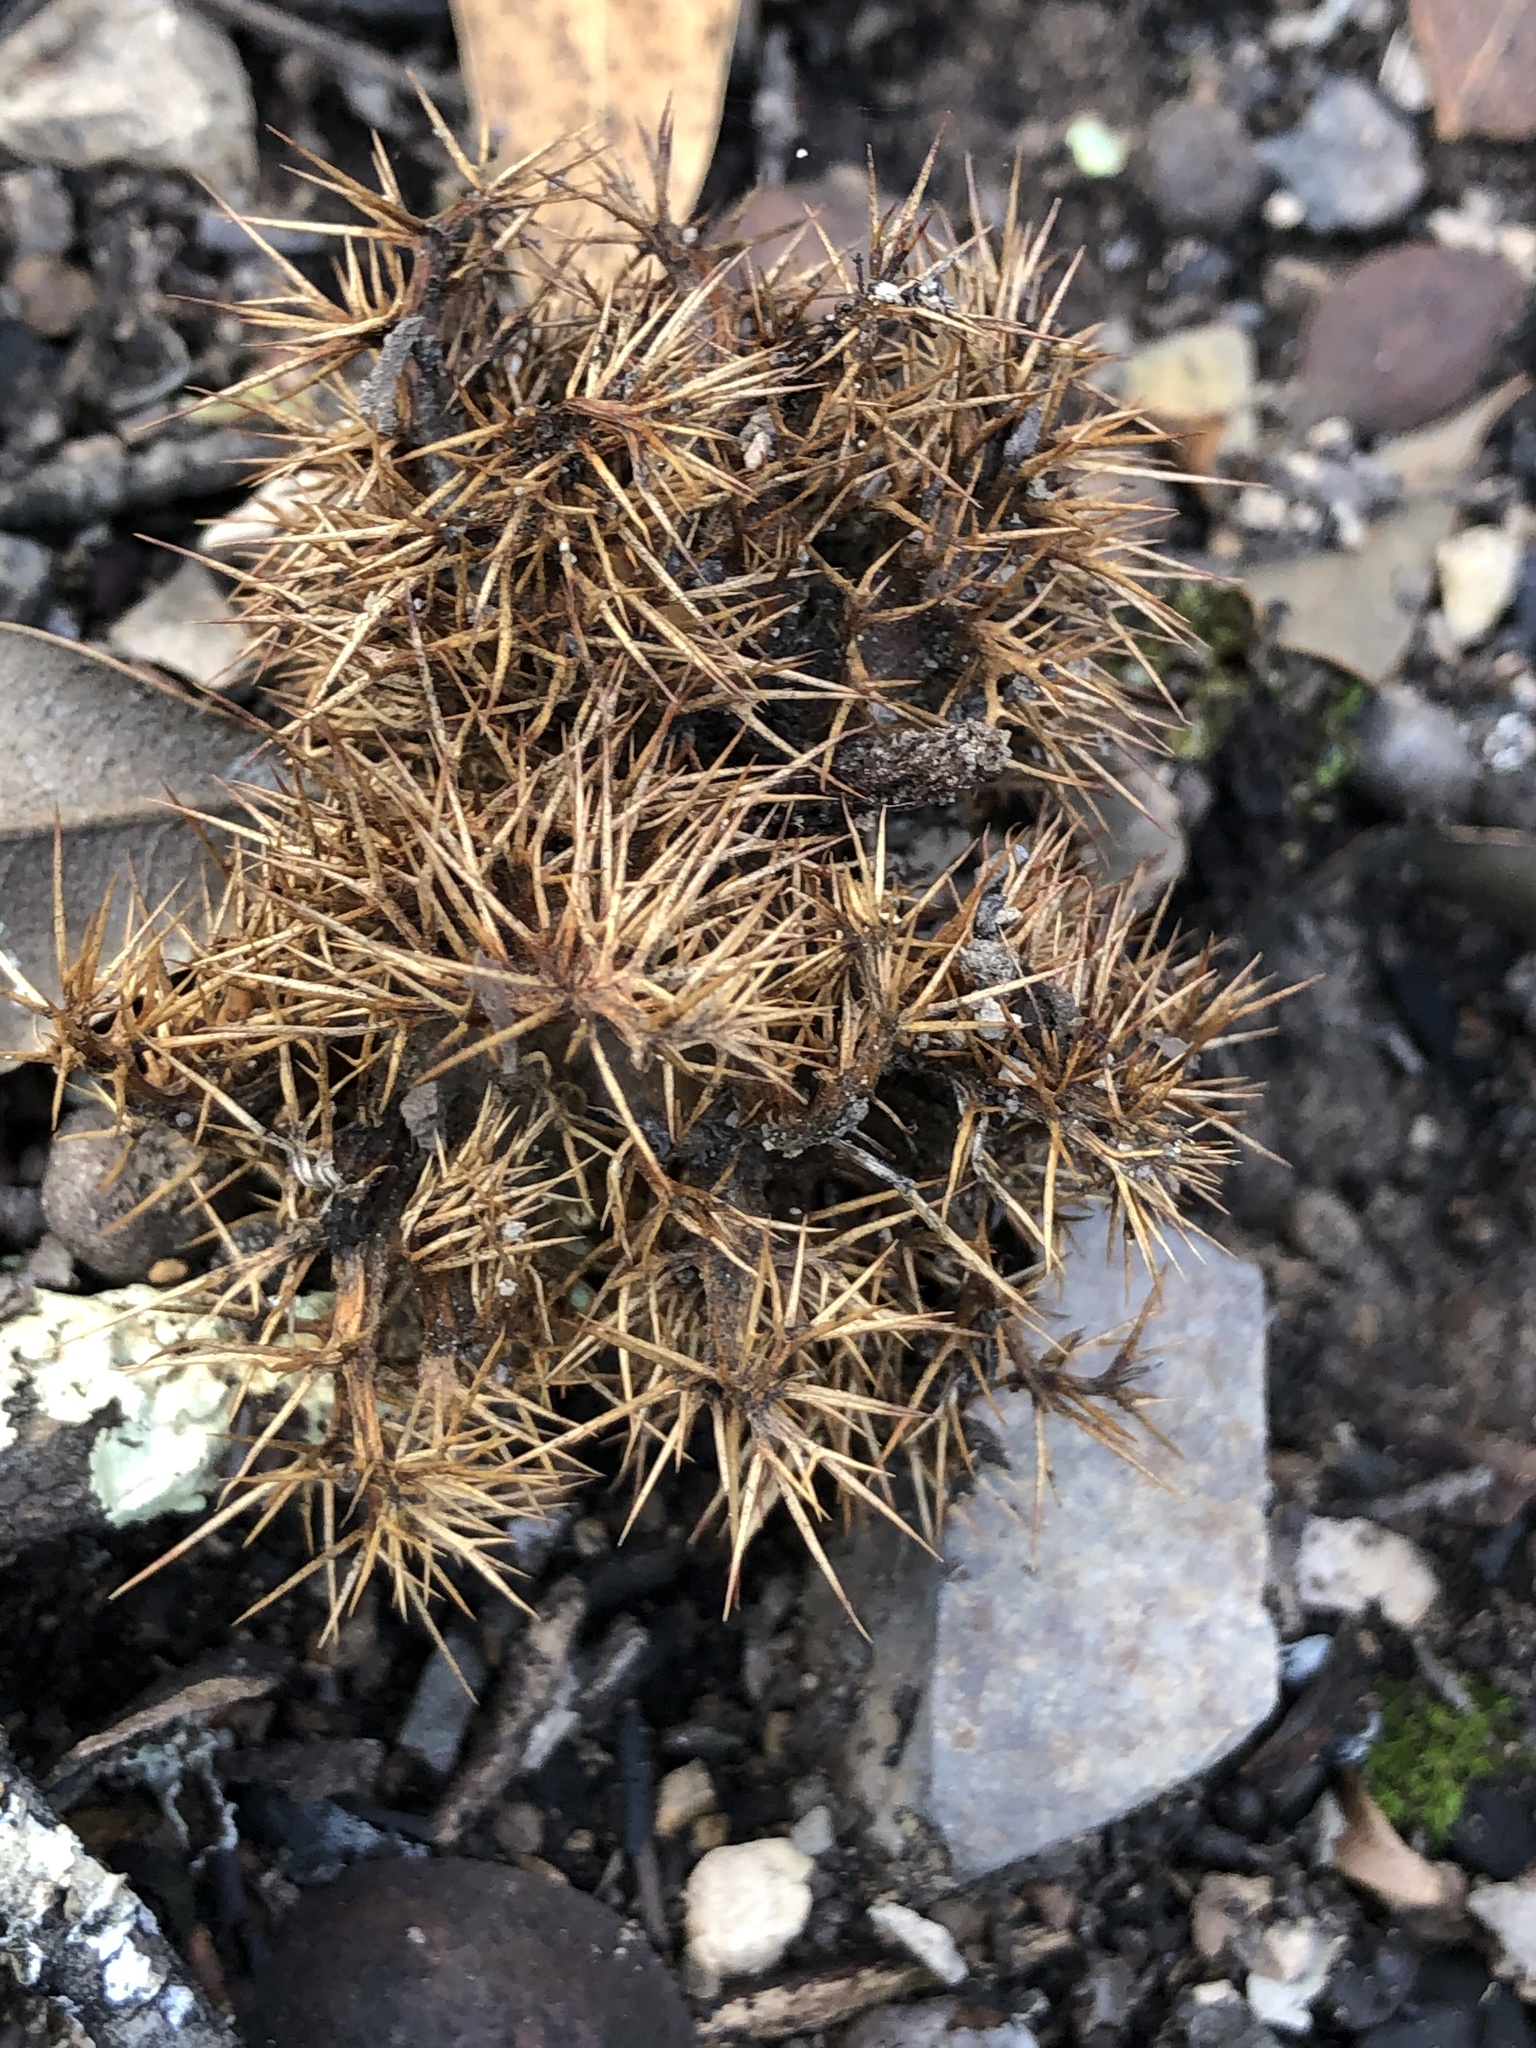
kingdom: Plantae
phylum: Tracheophyta
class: Magnoliopsida
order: Fagales
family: Fagaceae
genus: Chrysolepis
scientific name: Chrysolepis chrysophylla
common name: Giant chinquapin
